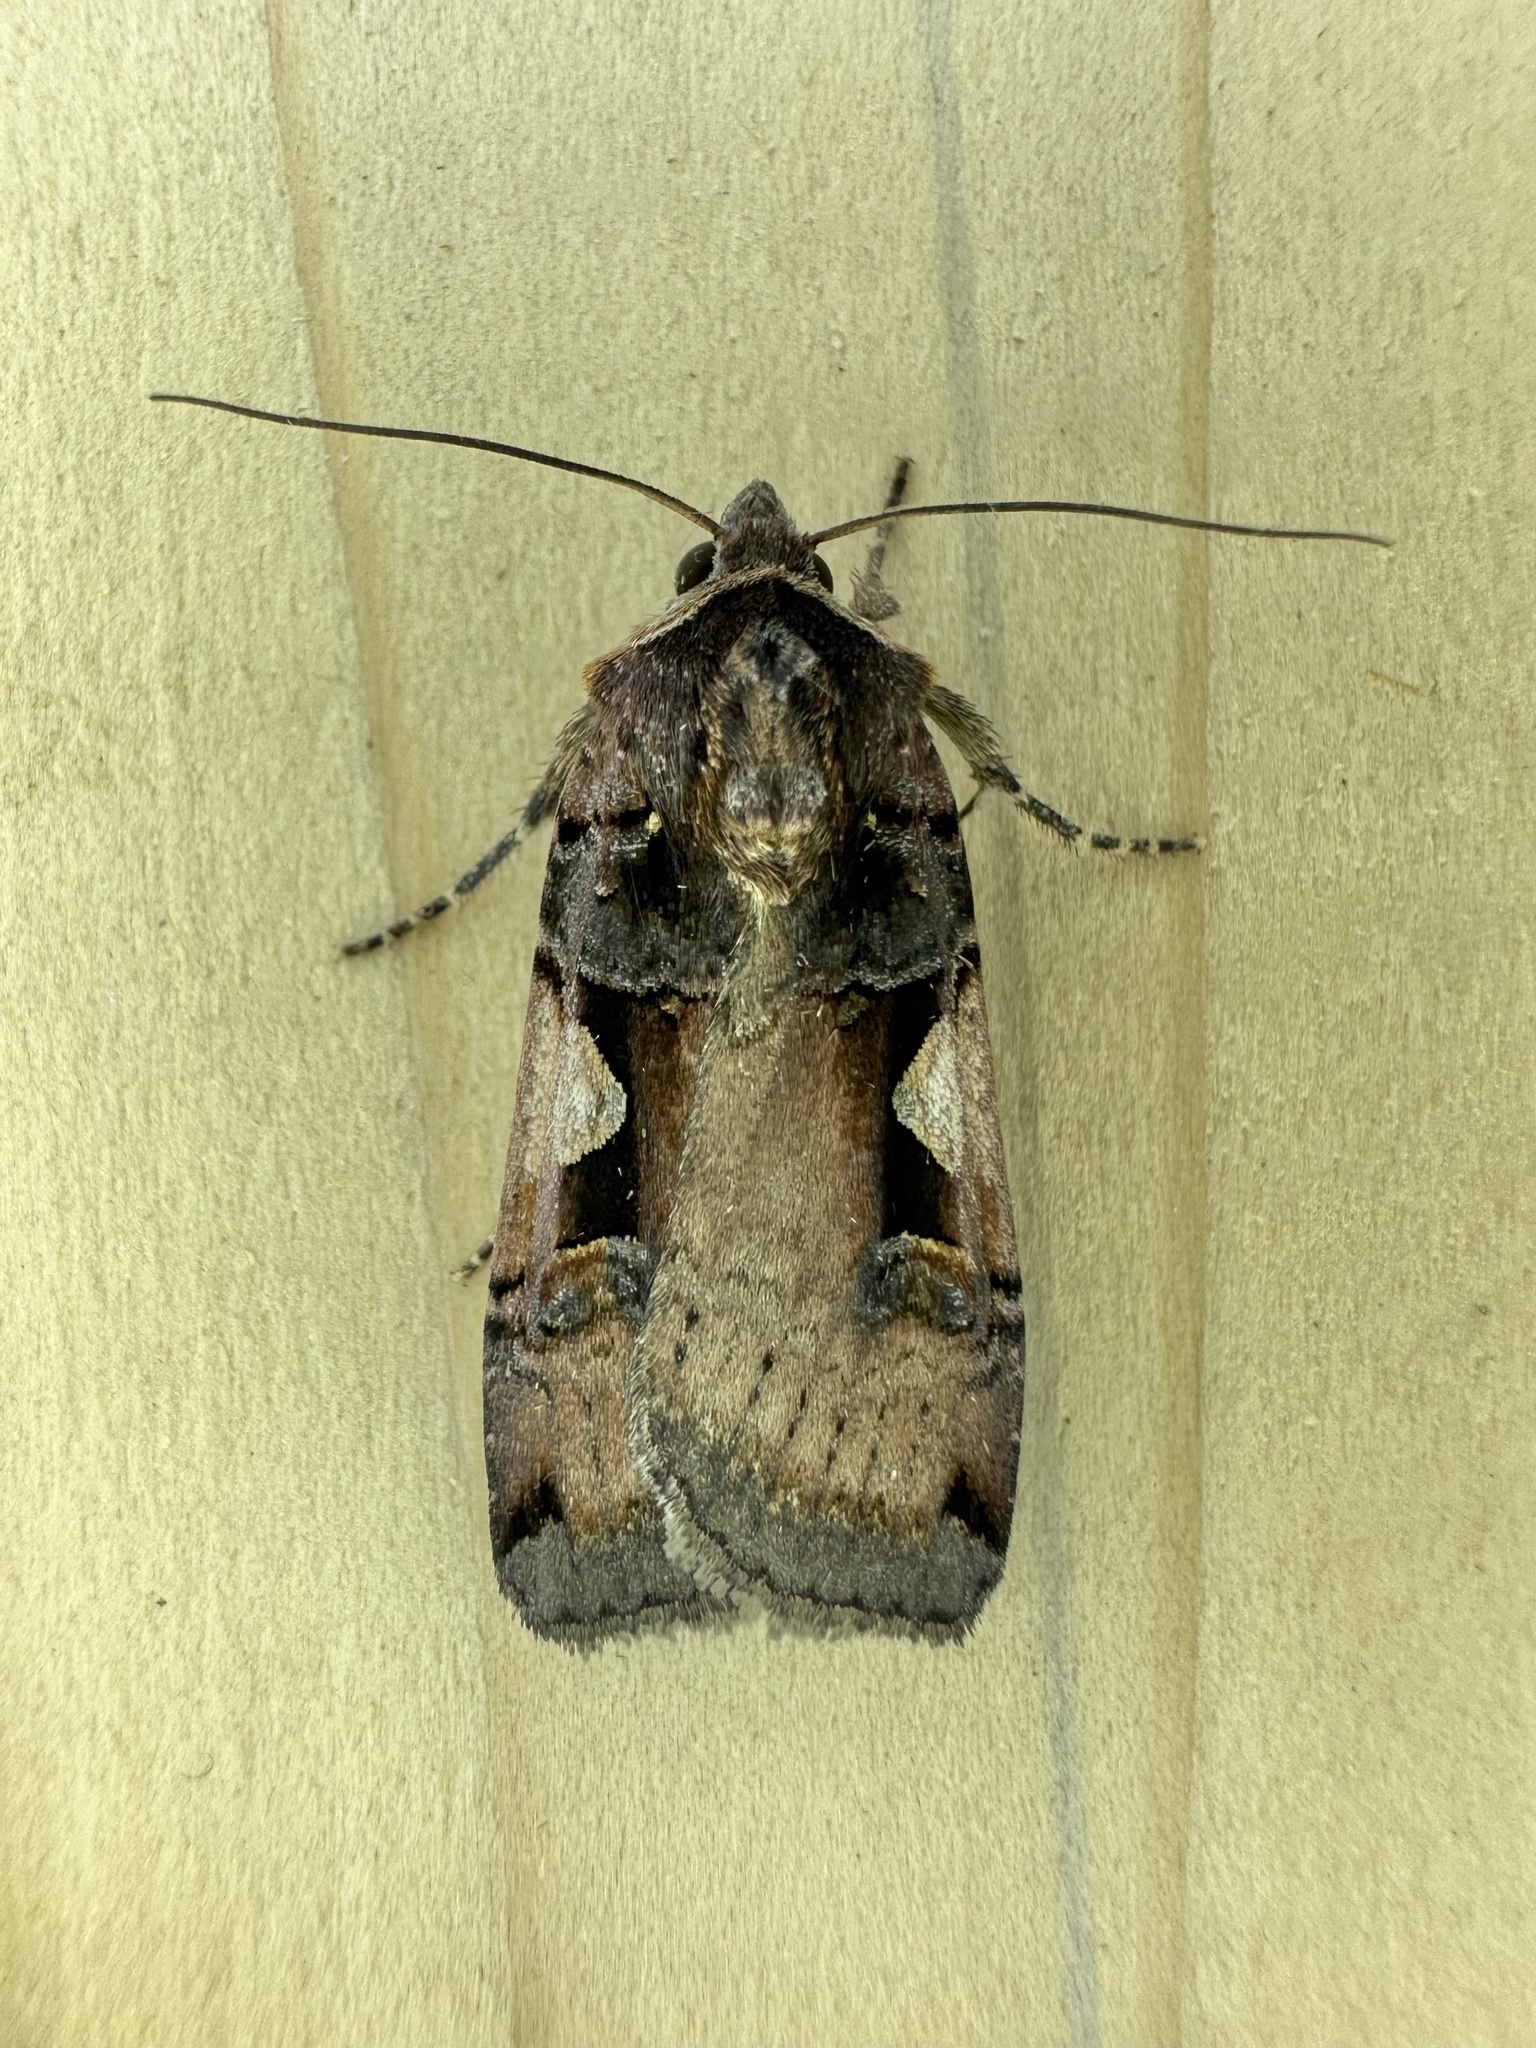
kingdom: Animalia
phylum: Arthropoda
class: Insecta
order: Lepidoptera
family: Noctuidae
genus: Xestia
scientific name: Xestia
